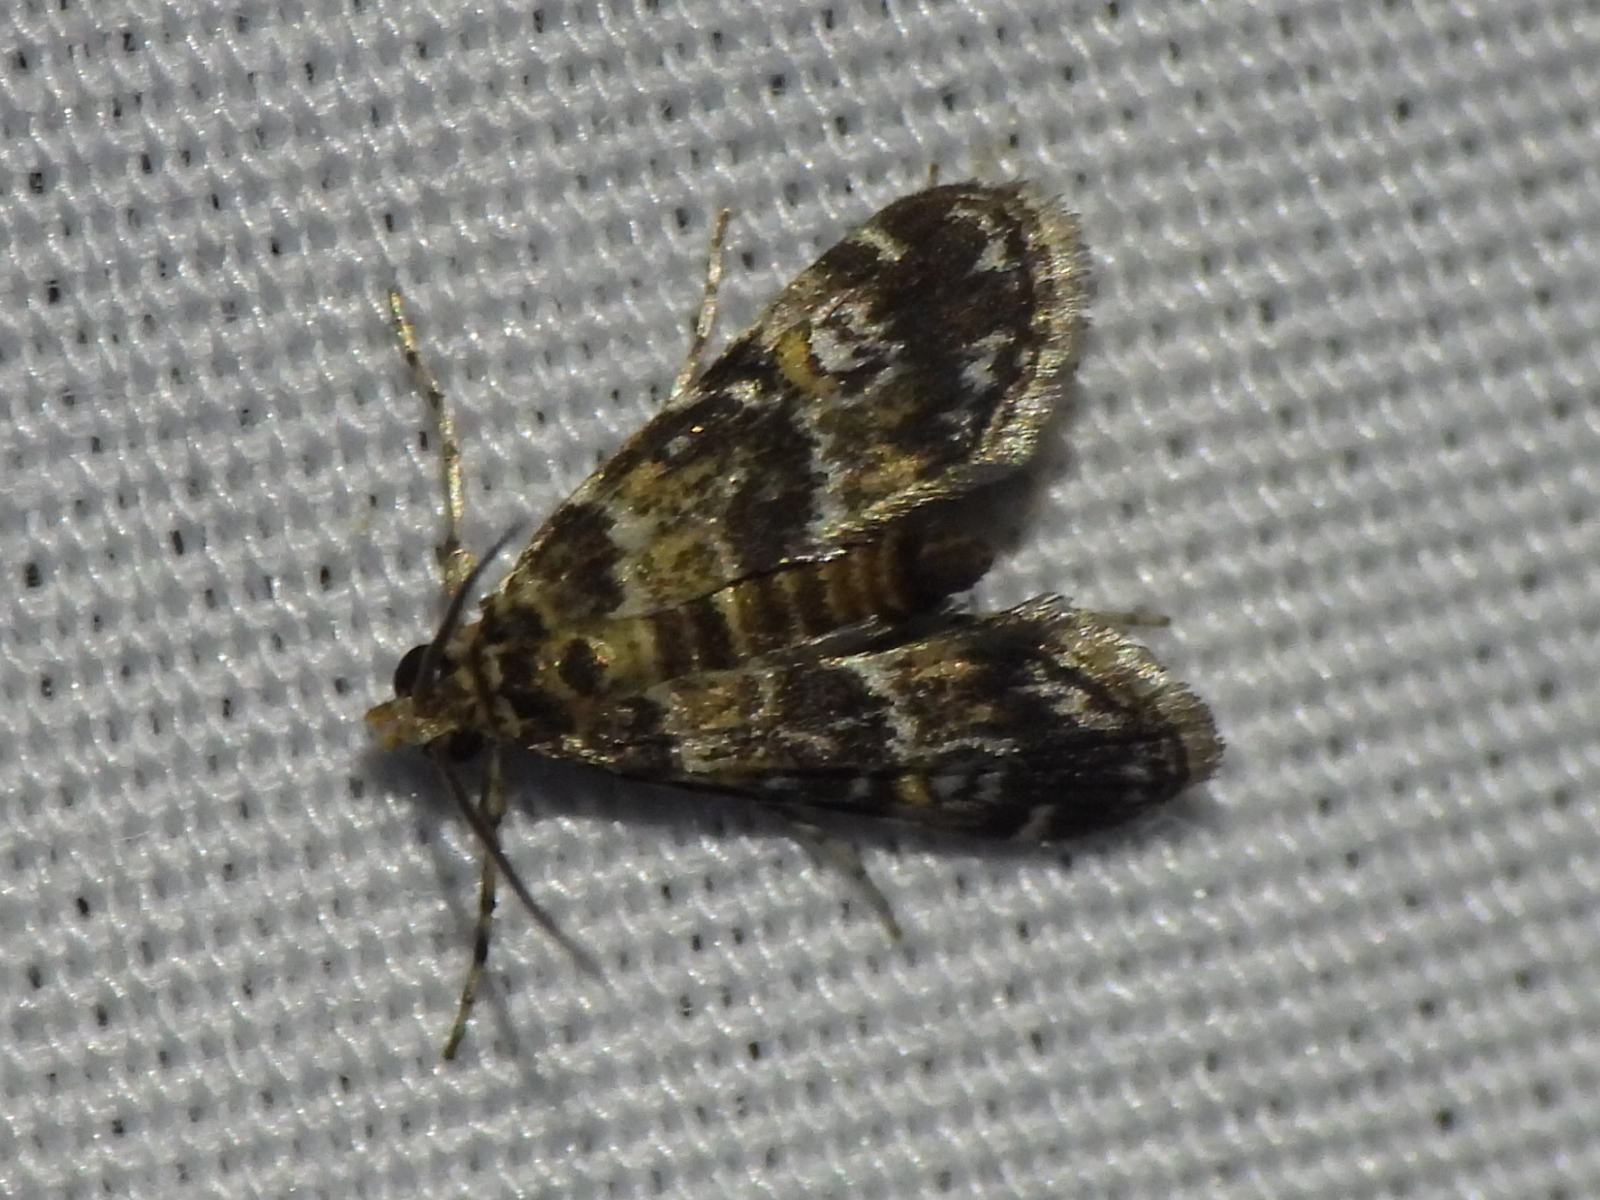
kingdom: Animalia
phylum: Arthropoda
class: Insecta
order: Lepidoptera
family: Crambidae
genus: Elophila
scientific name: Elophila obliteralis
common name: Waterlily leafcutter moth
